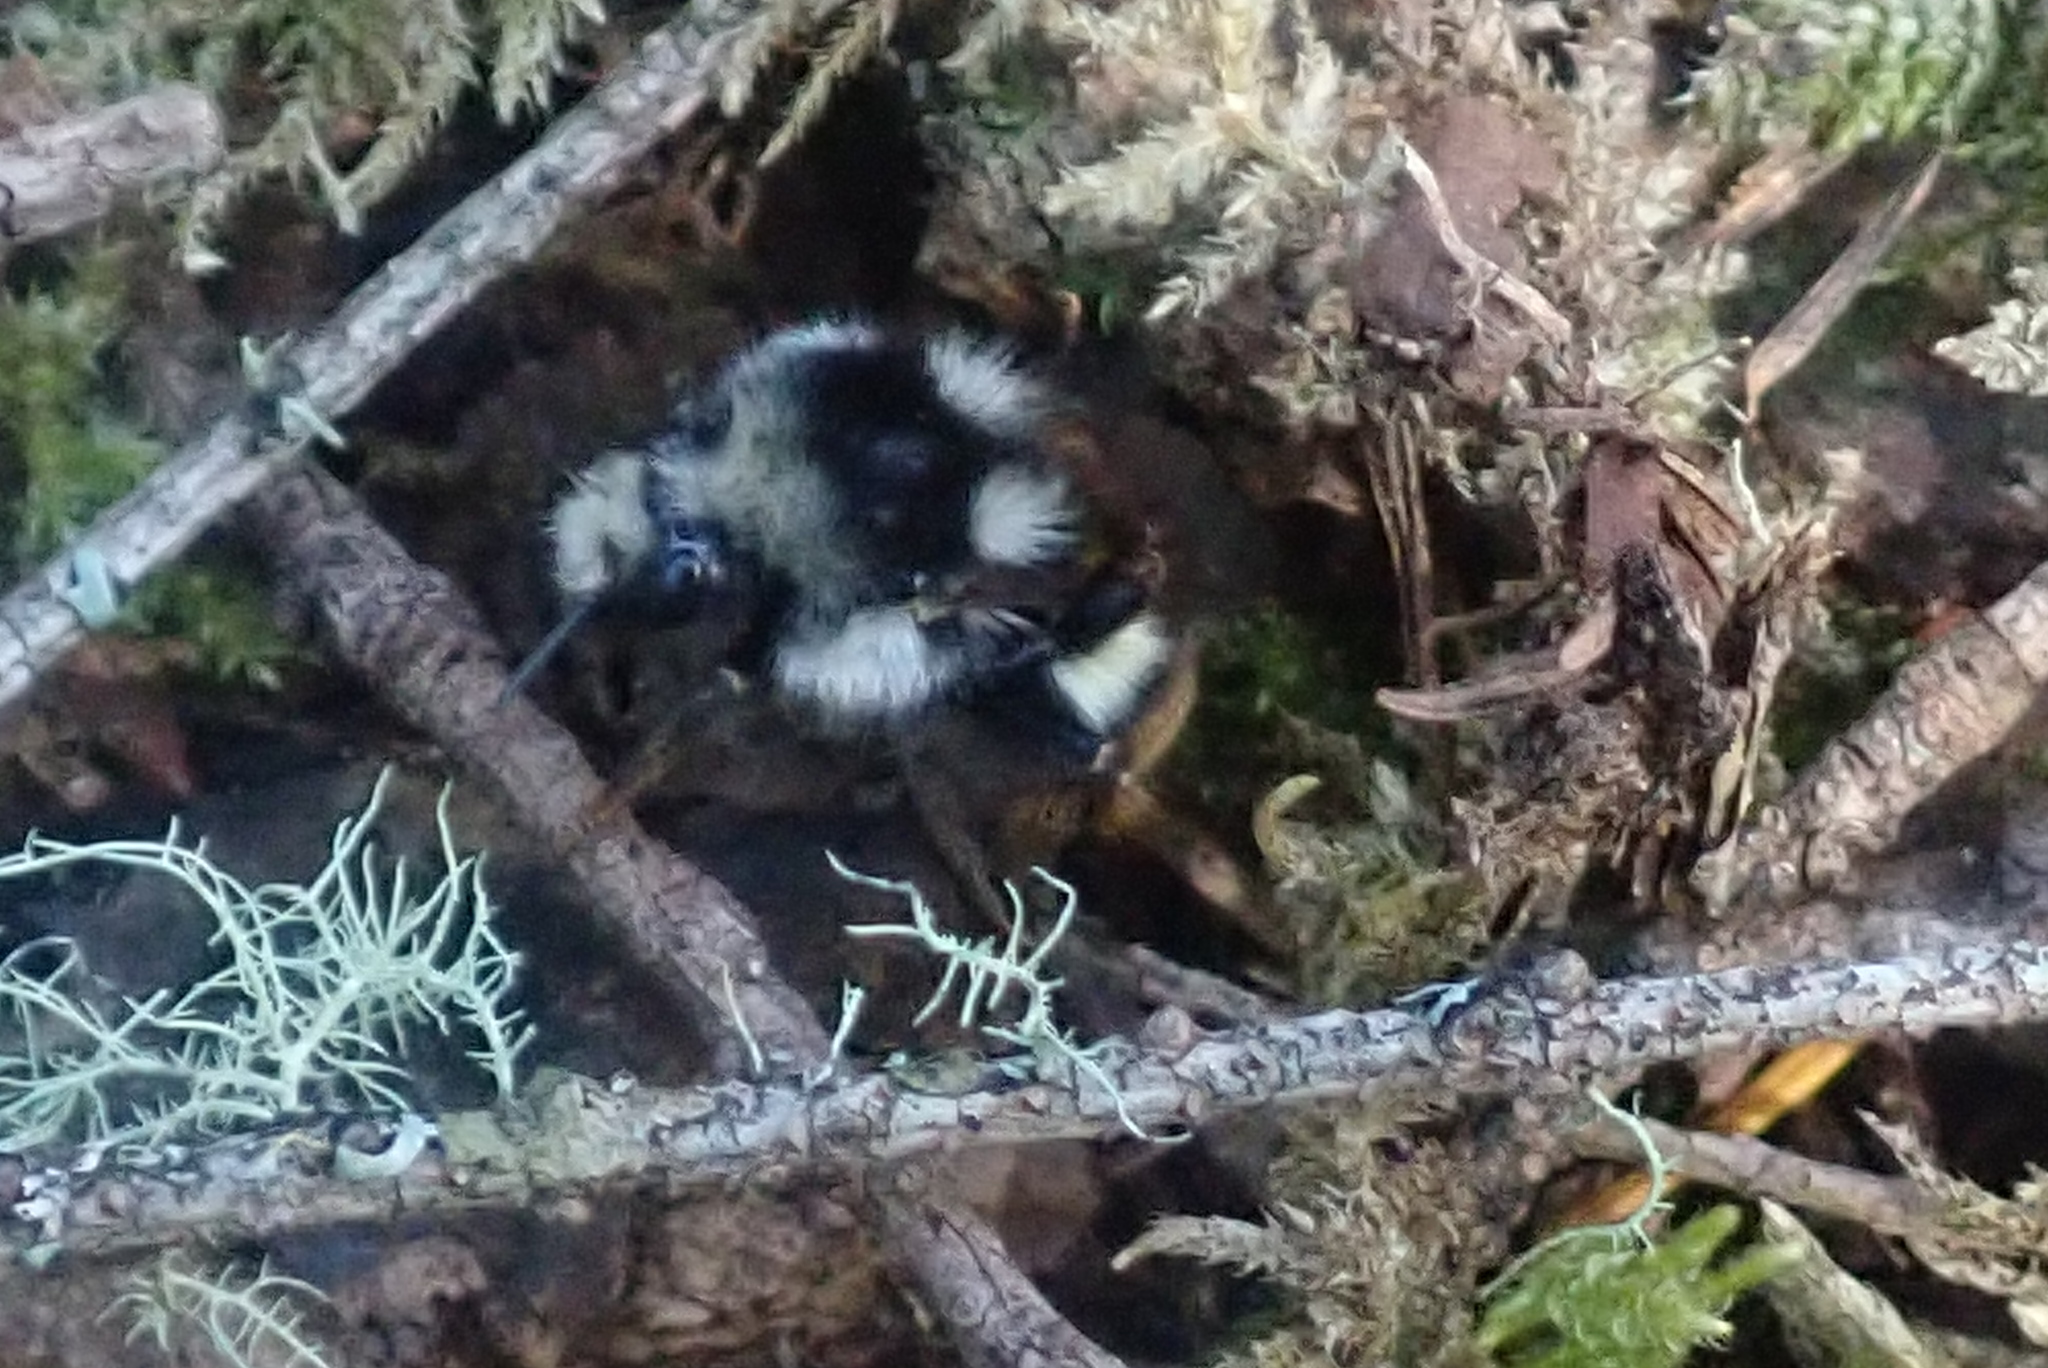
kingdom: Animalia
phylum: Arthropoda
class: Insecta
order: Hymenoptera
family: Apidae
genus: Bombus
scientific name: Bombus vancouverensis
